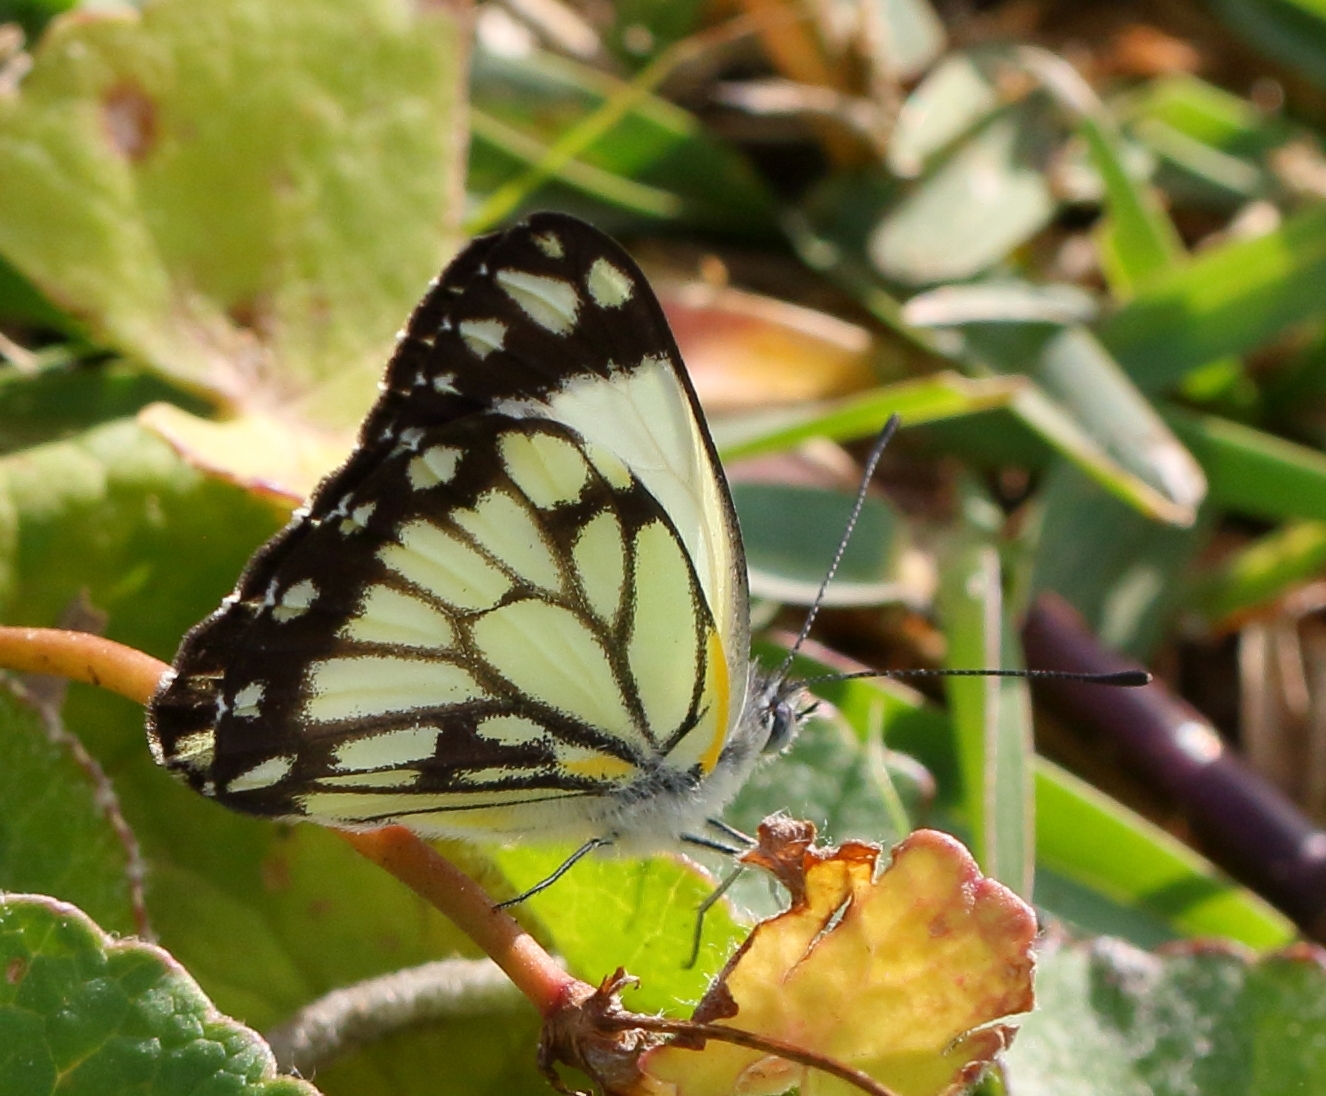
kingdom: Animalia
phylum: Arthropoda
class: Insecta
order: Lepidoptera
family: Pieridae
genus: Belenois
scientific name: Belenois creona
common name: African caper white
